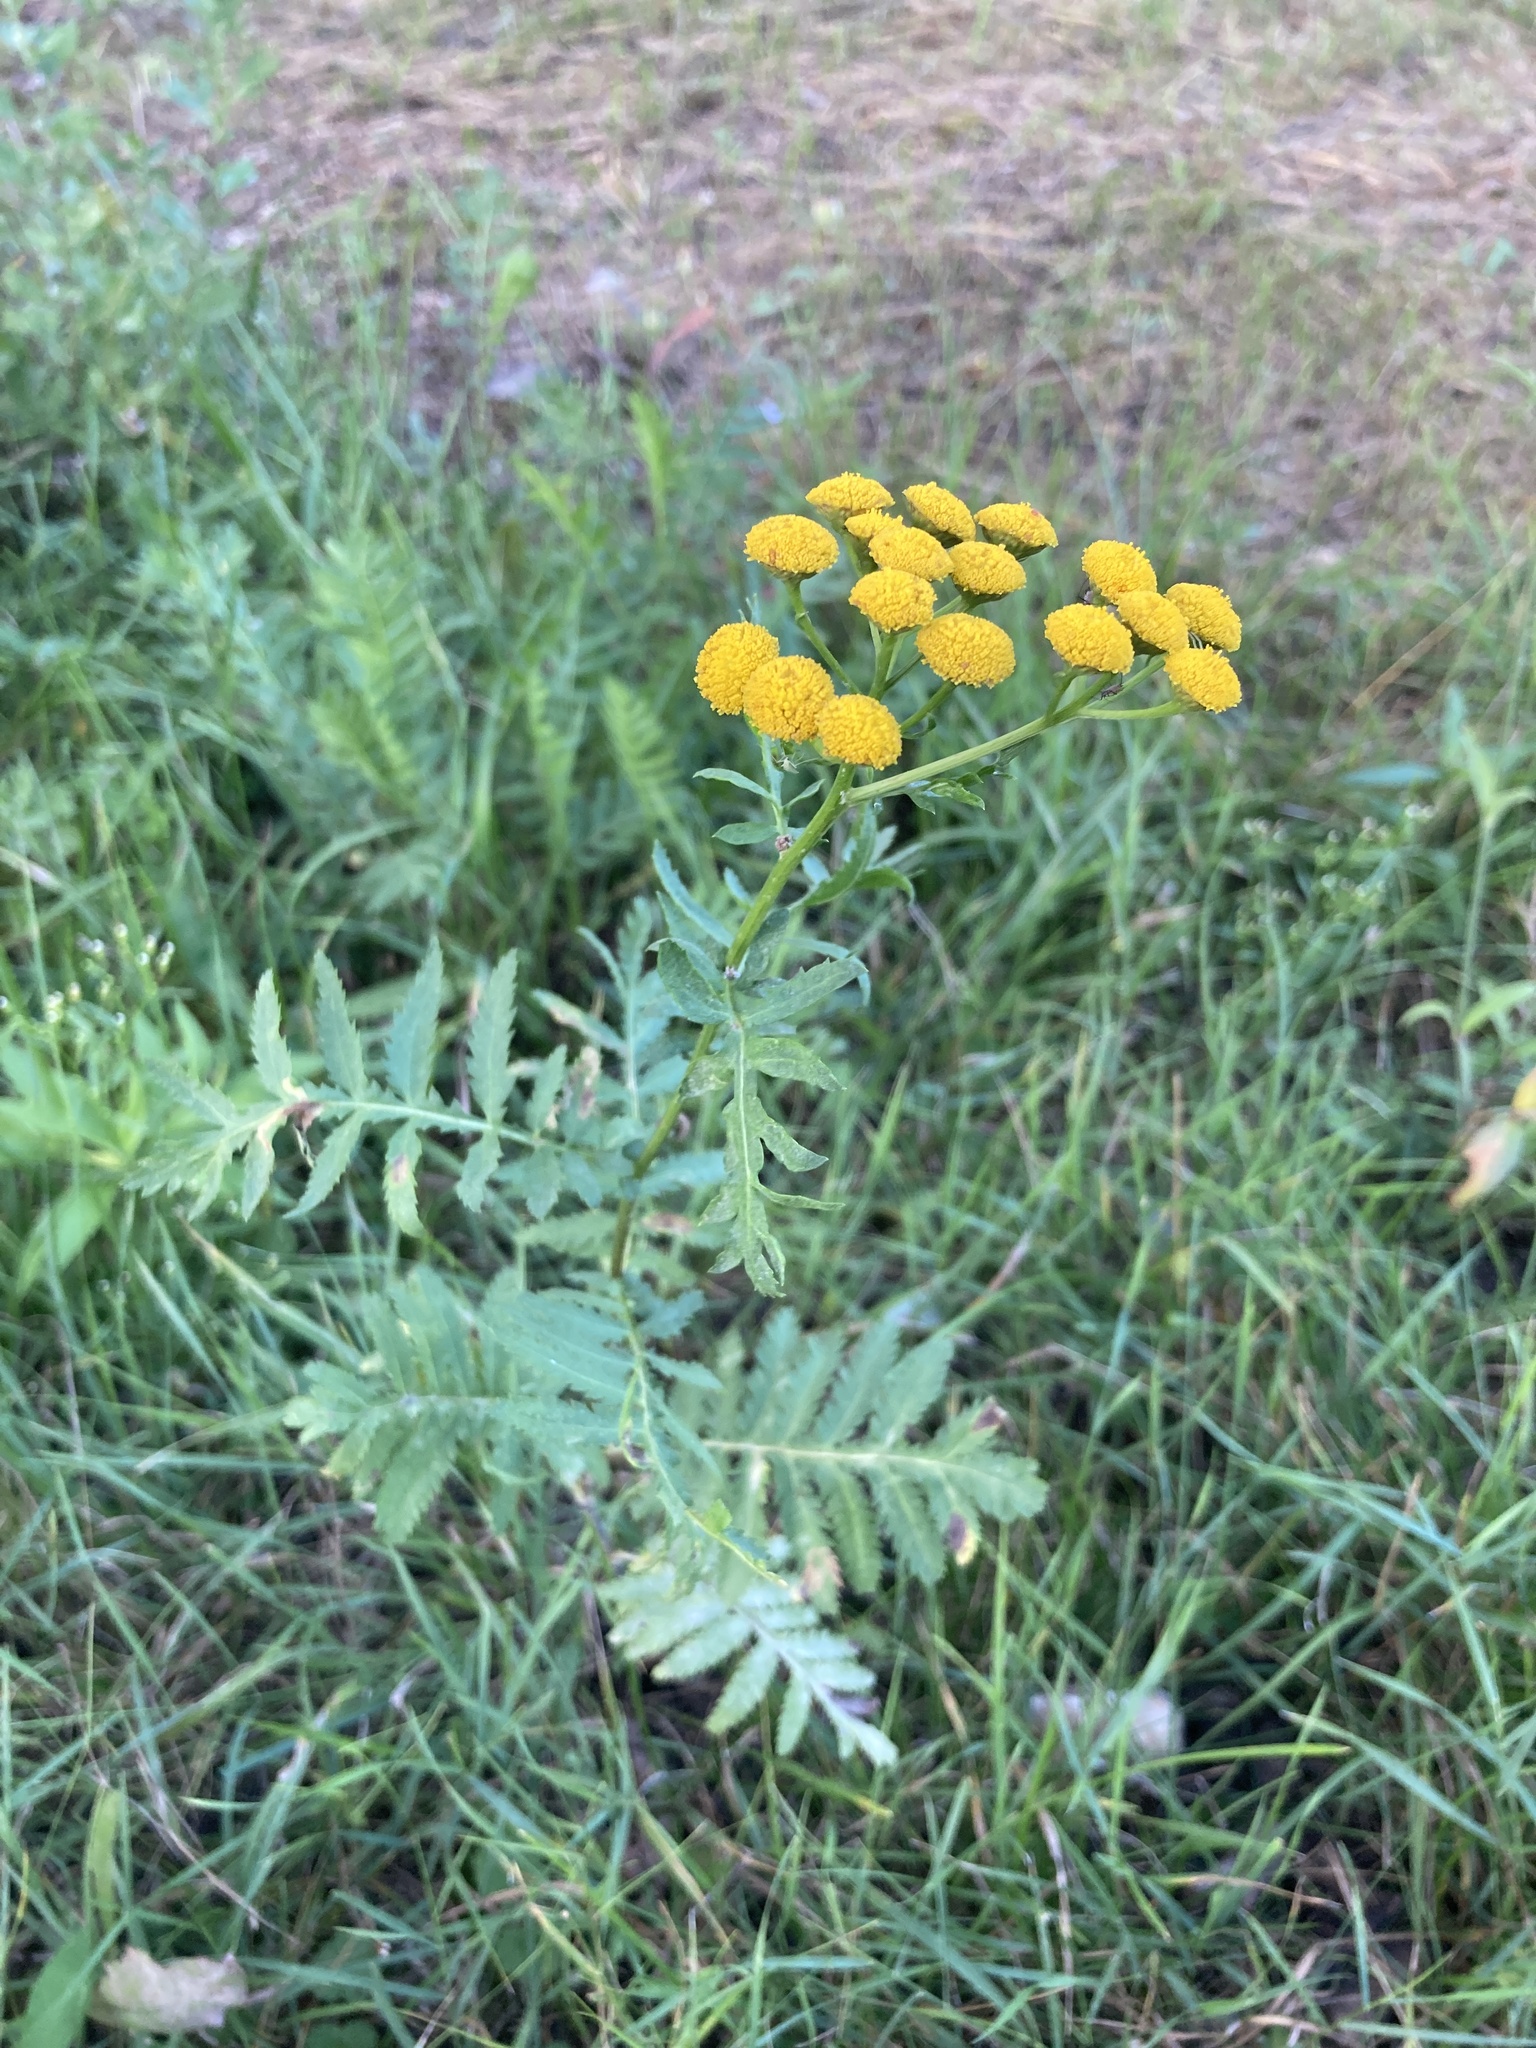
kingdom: Plantae
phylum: Tracheophyta
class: Magnoliopsida
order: Asterales
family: Asteraceae
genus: Tanacetum
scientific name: Tanacetum vulgare
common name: Common tansy
